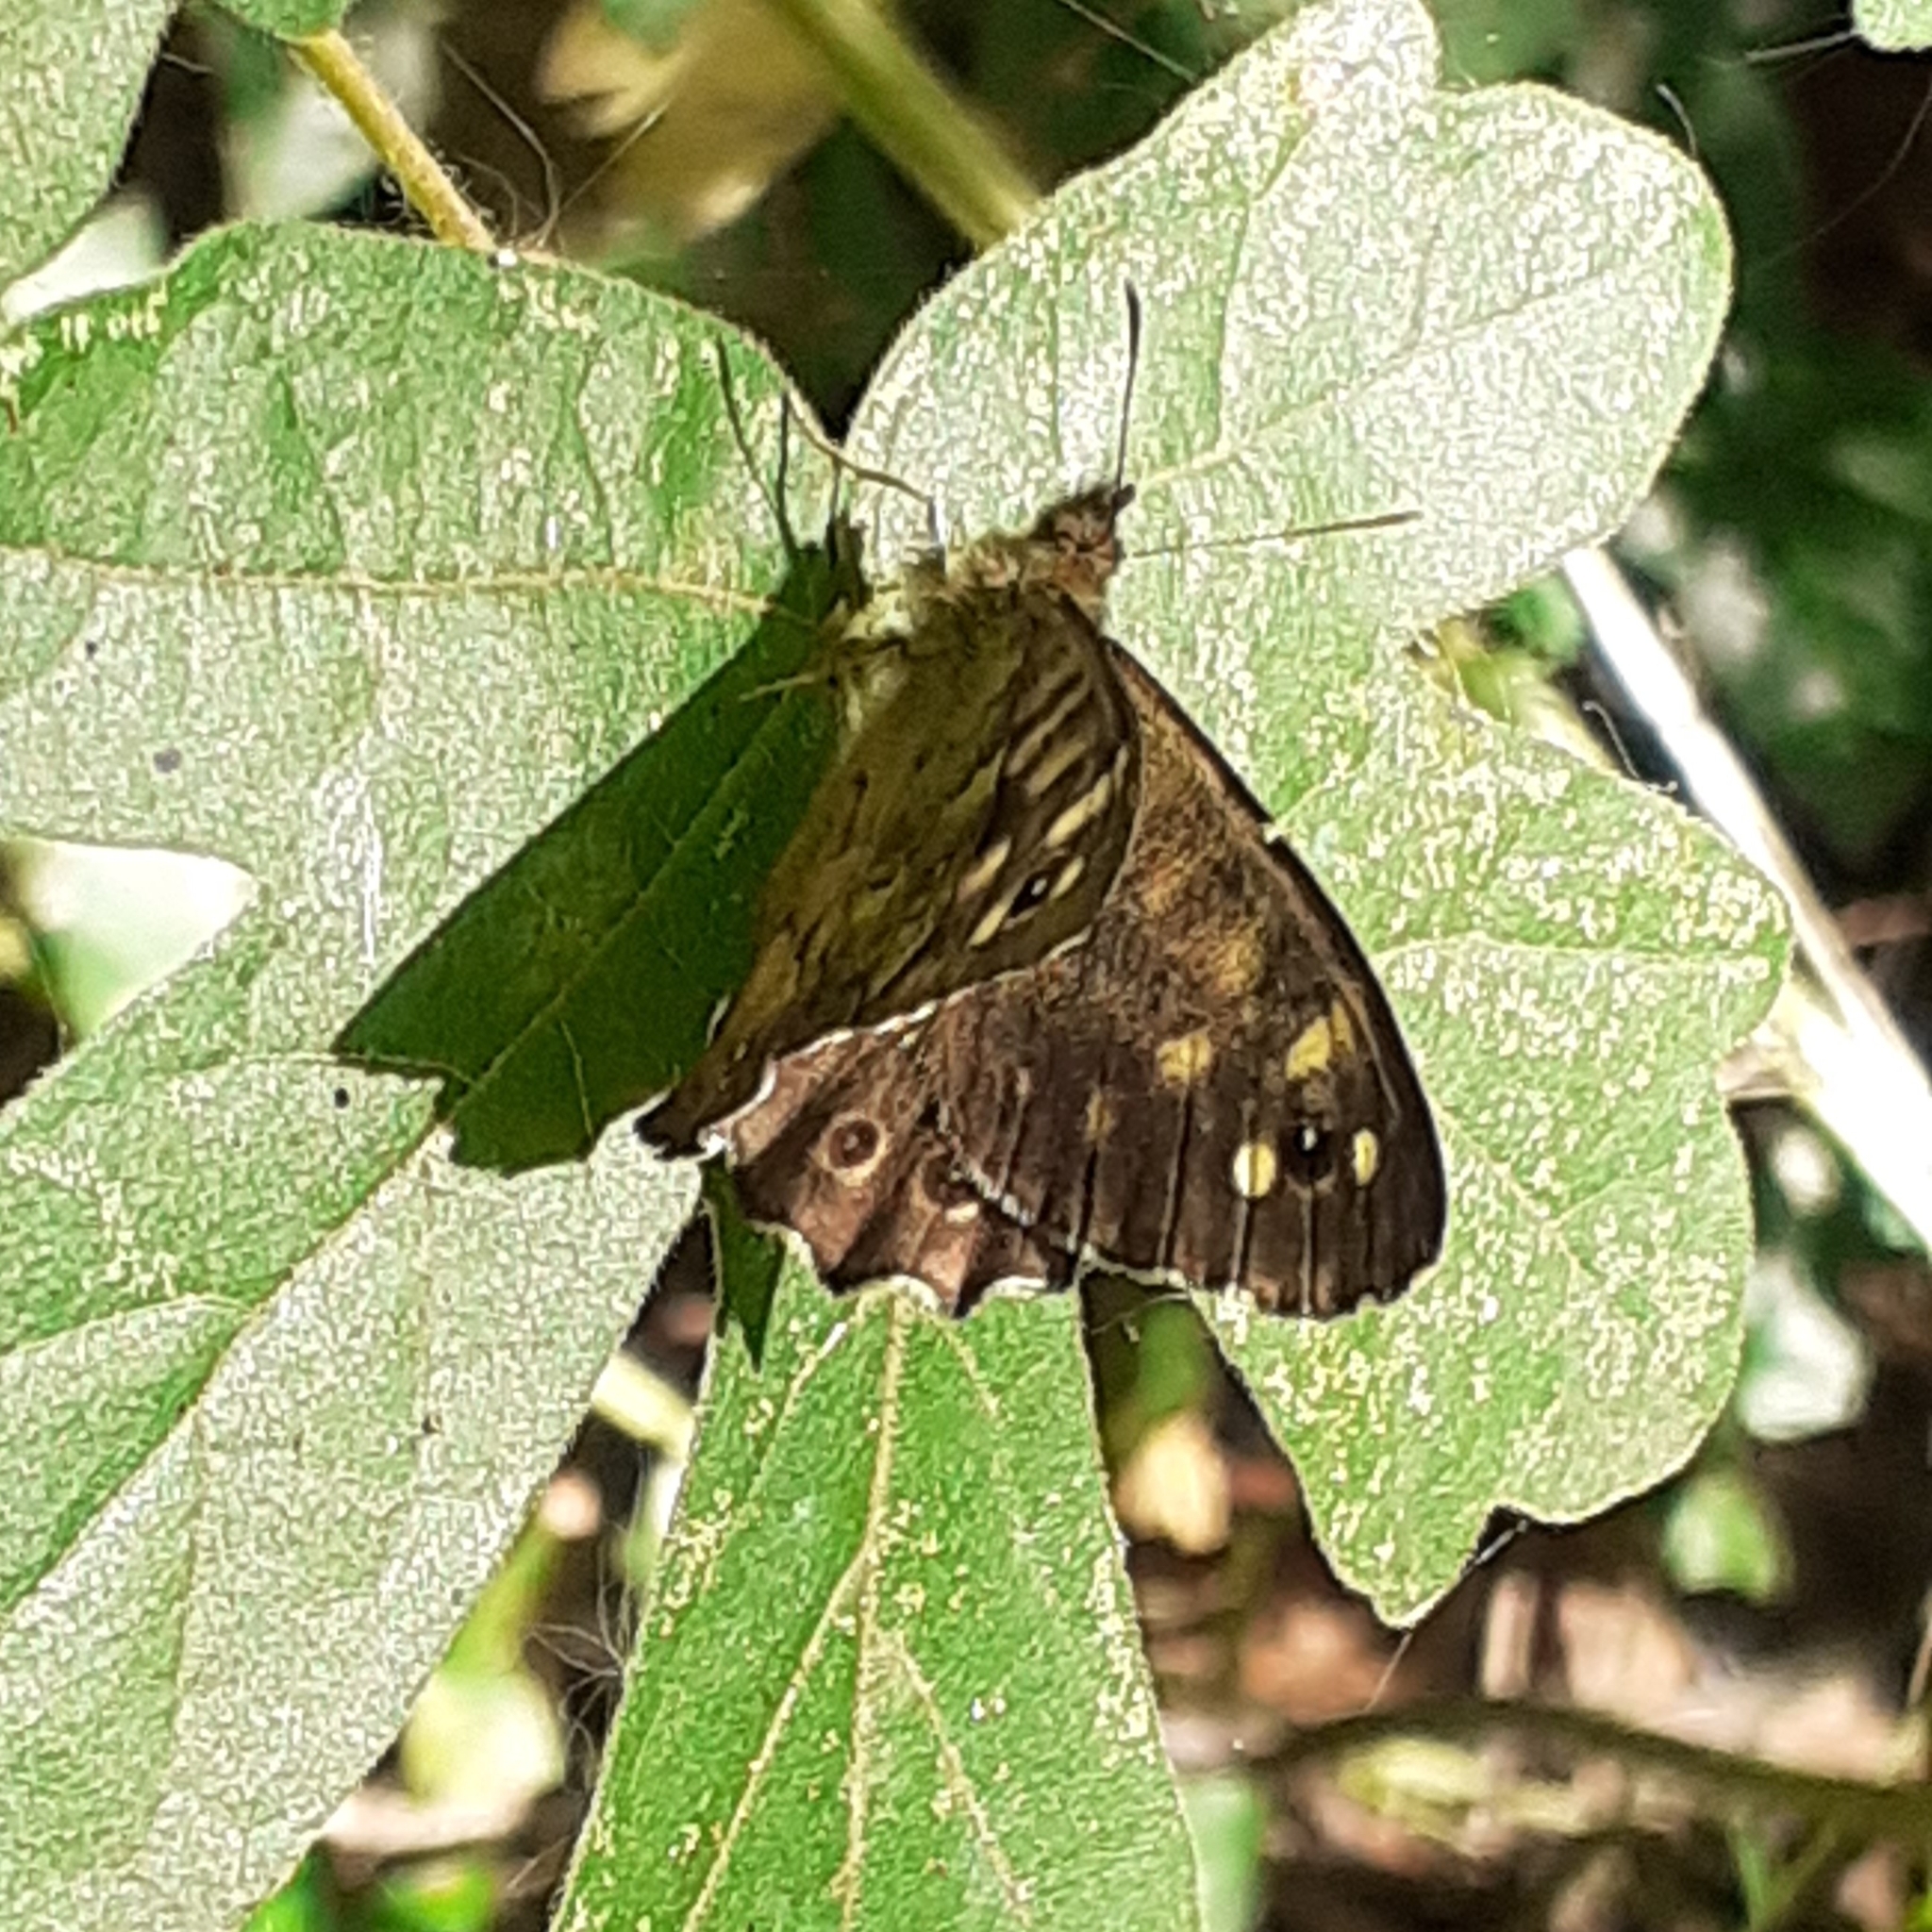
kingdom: Animalia
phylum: Arthropoda
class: Insecta
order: Lepidoptera
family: Nymphalidae
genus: Pararge
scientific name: Pararge aegeria
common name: Speckled wood
